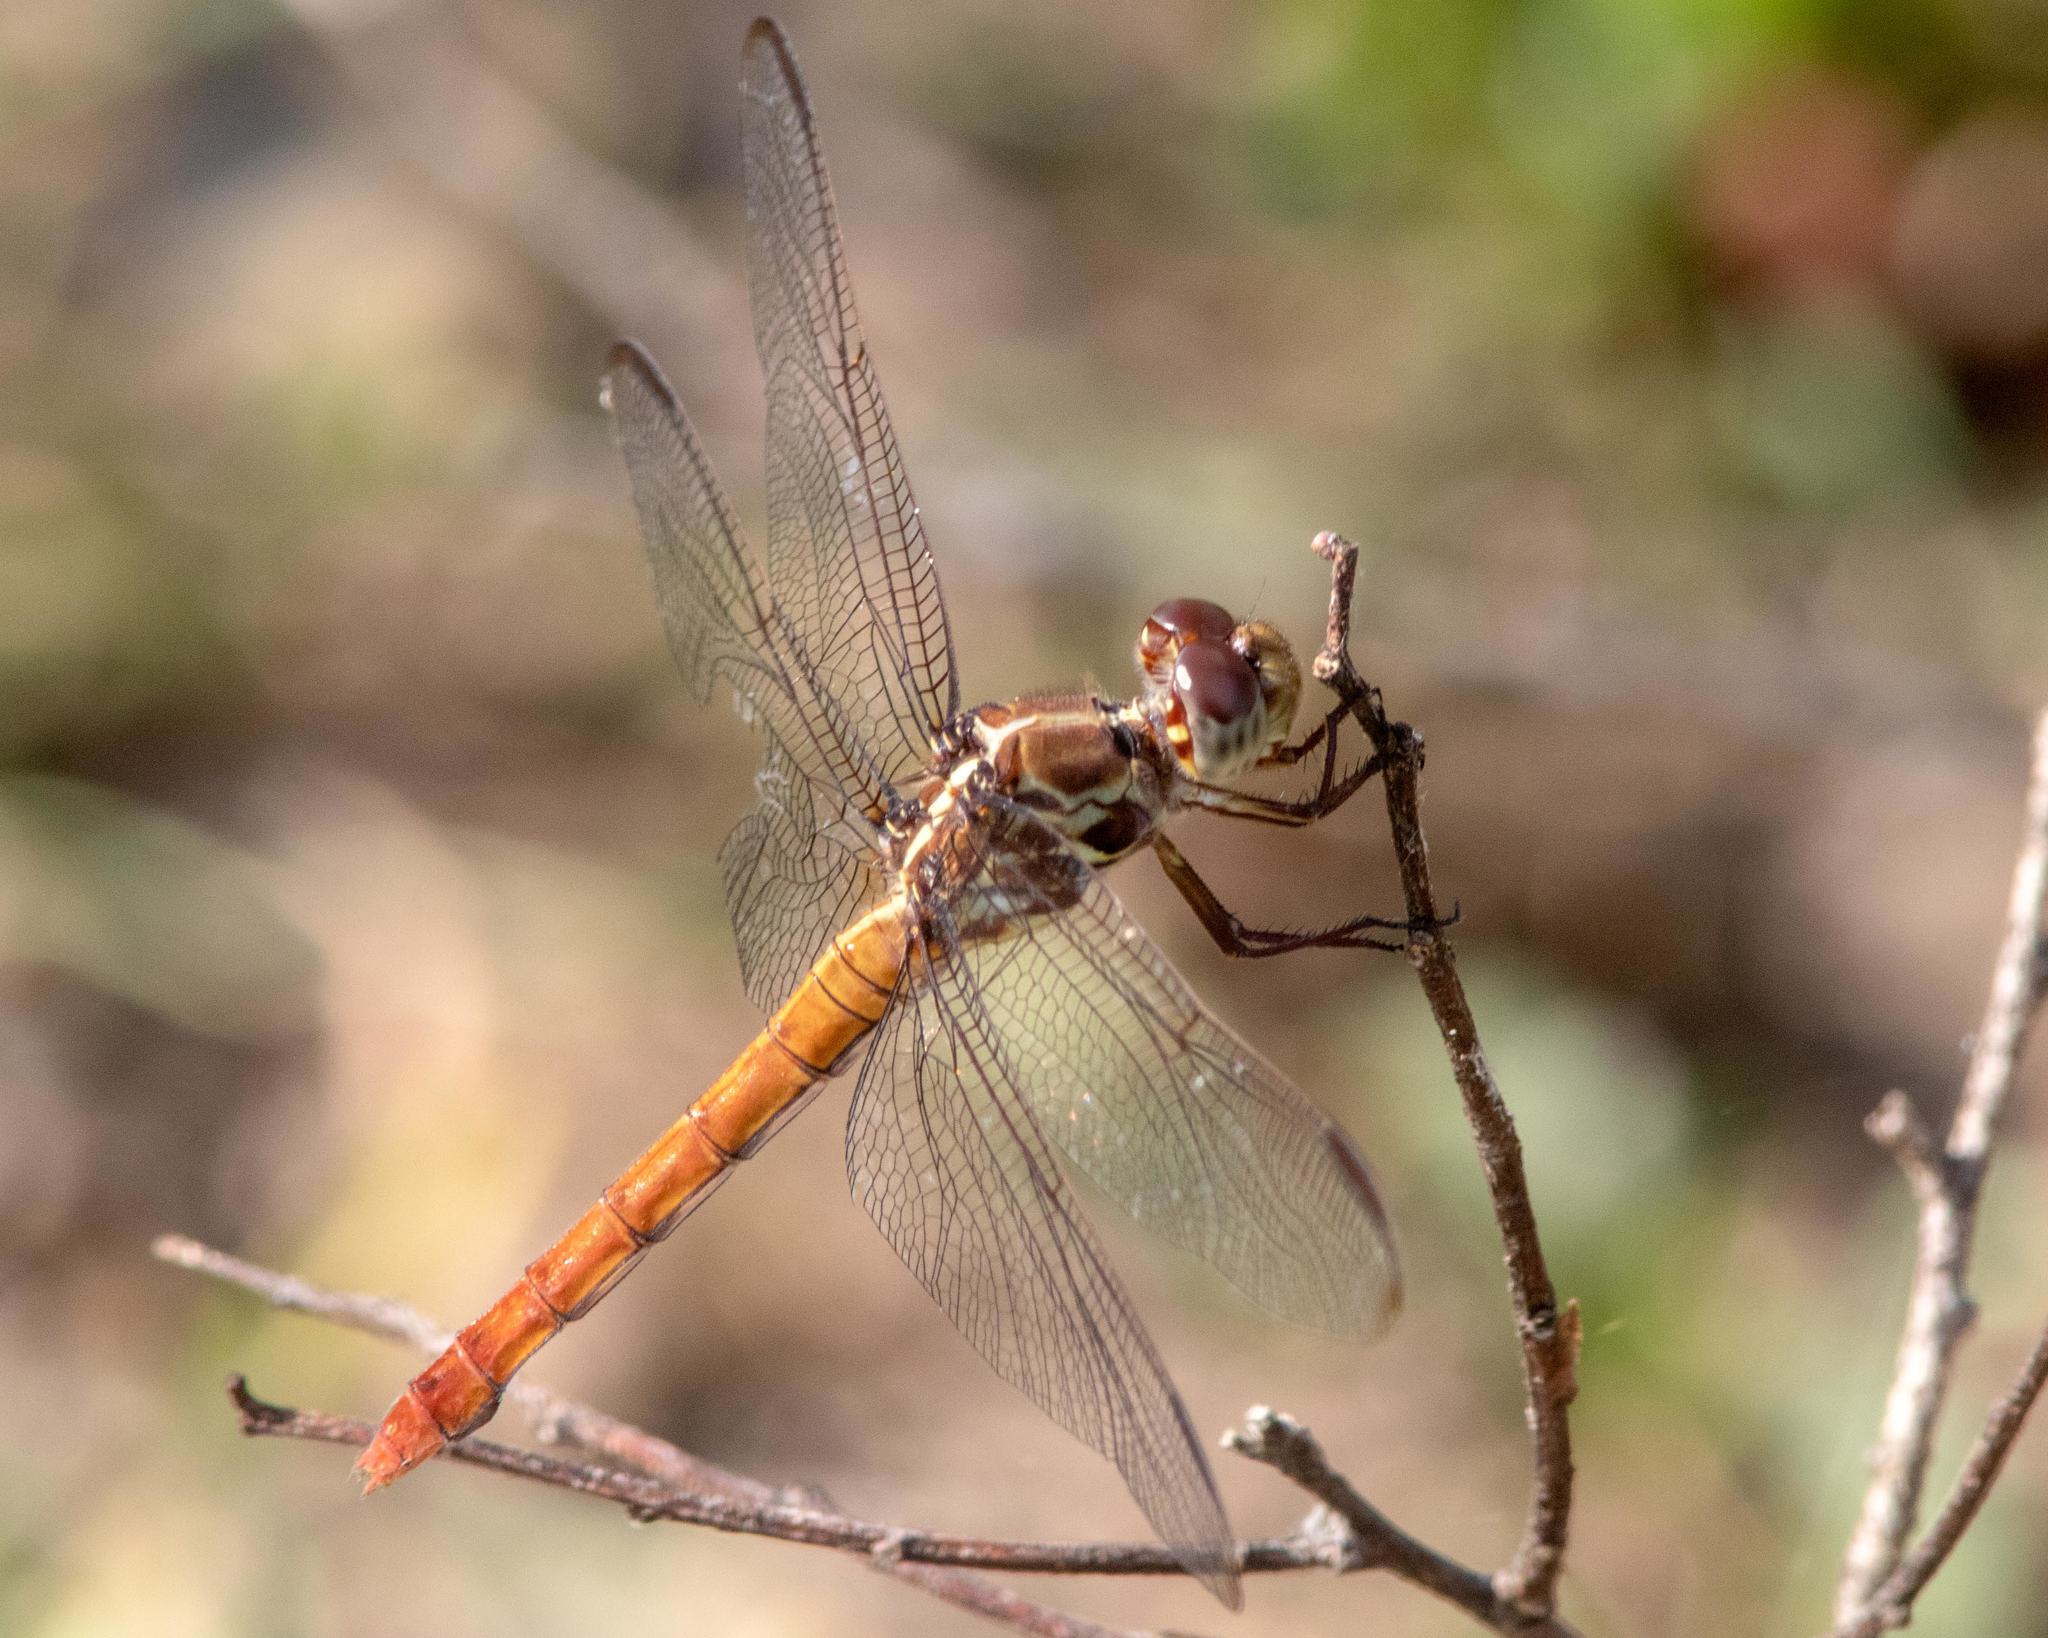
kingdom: Animalia
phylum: Arthropoda
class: Insecta
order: Odonata
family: Libellulidae
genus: Orthemis
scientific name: Orthemis ferruginea
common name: Roseate skimmer
